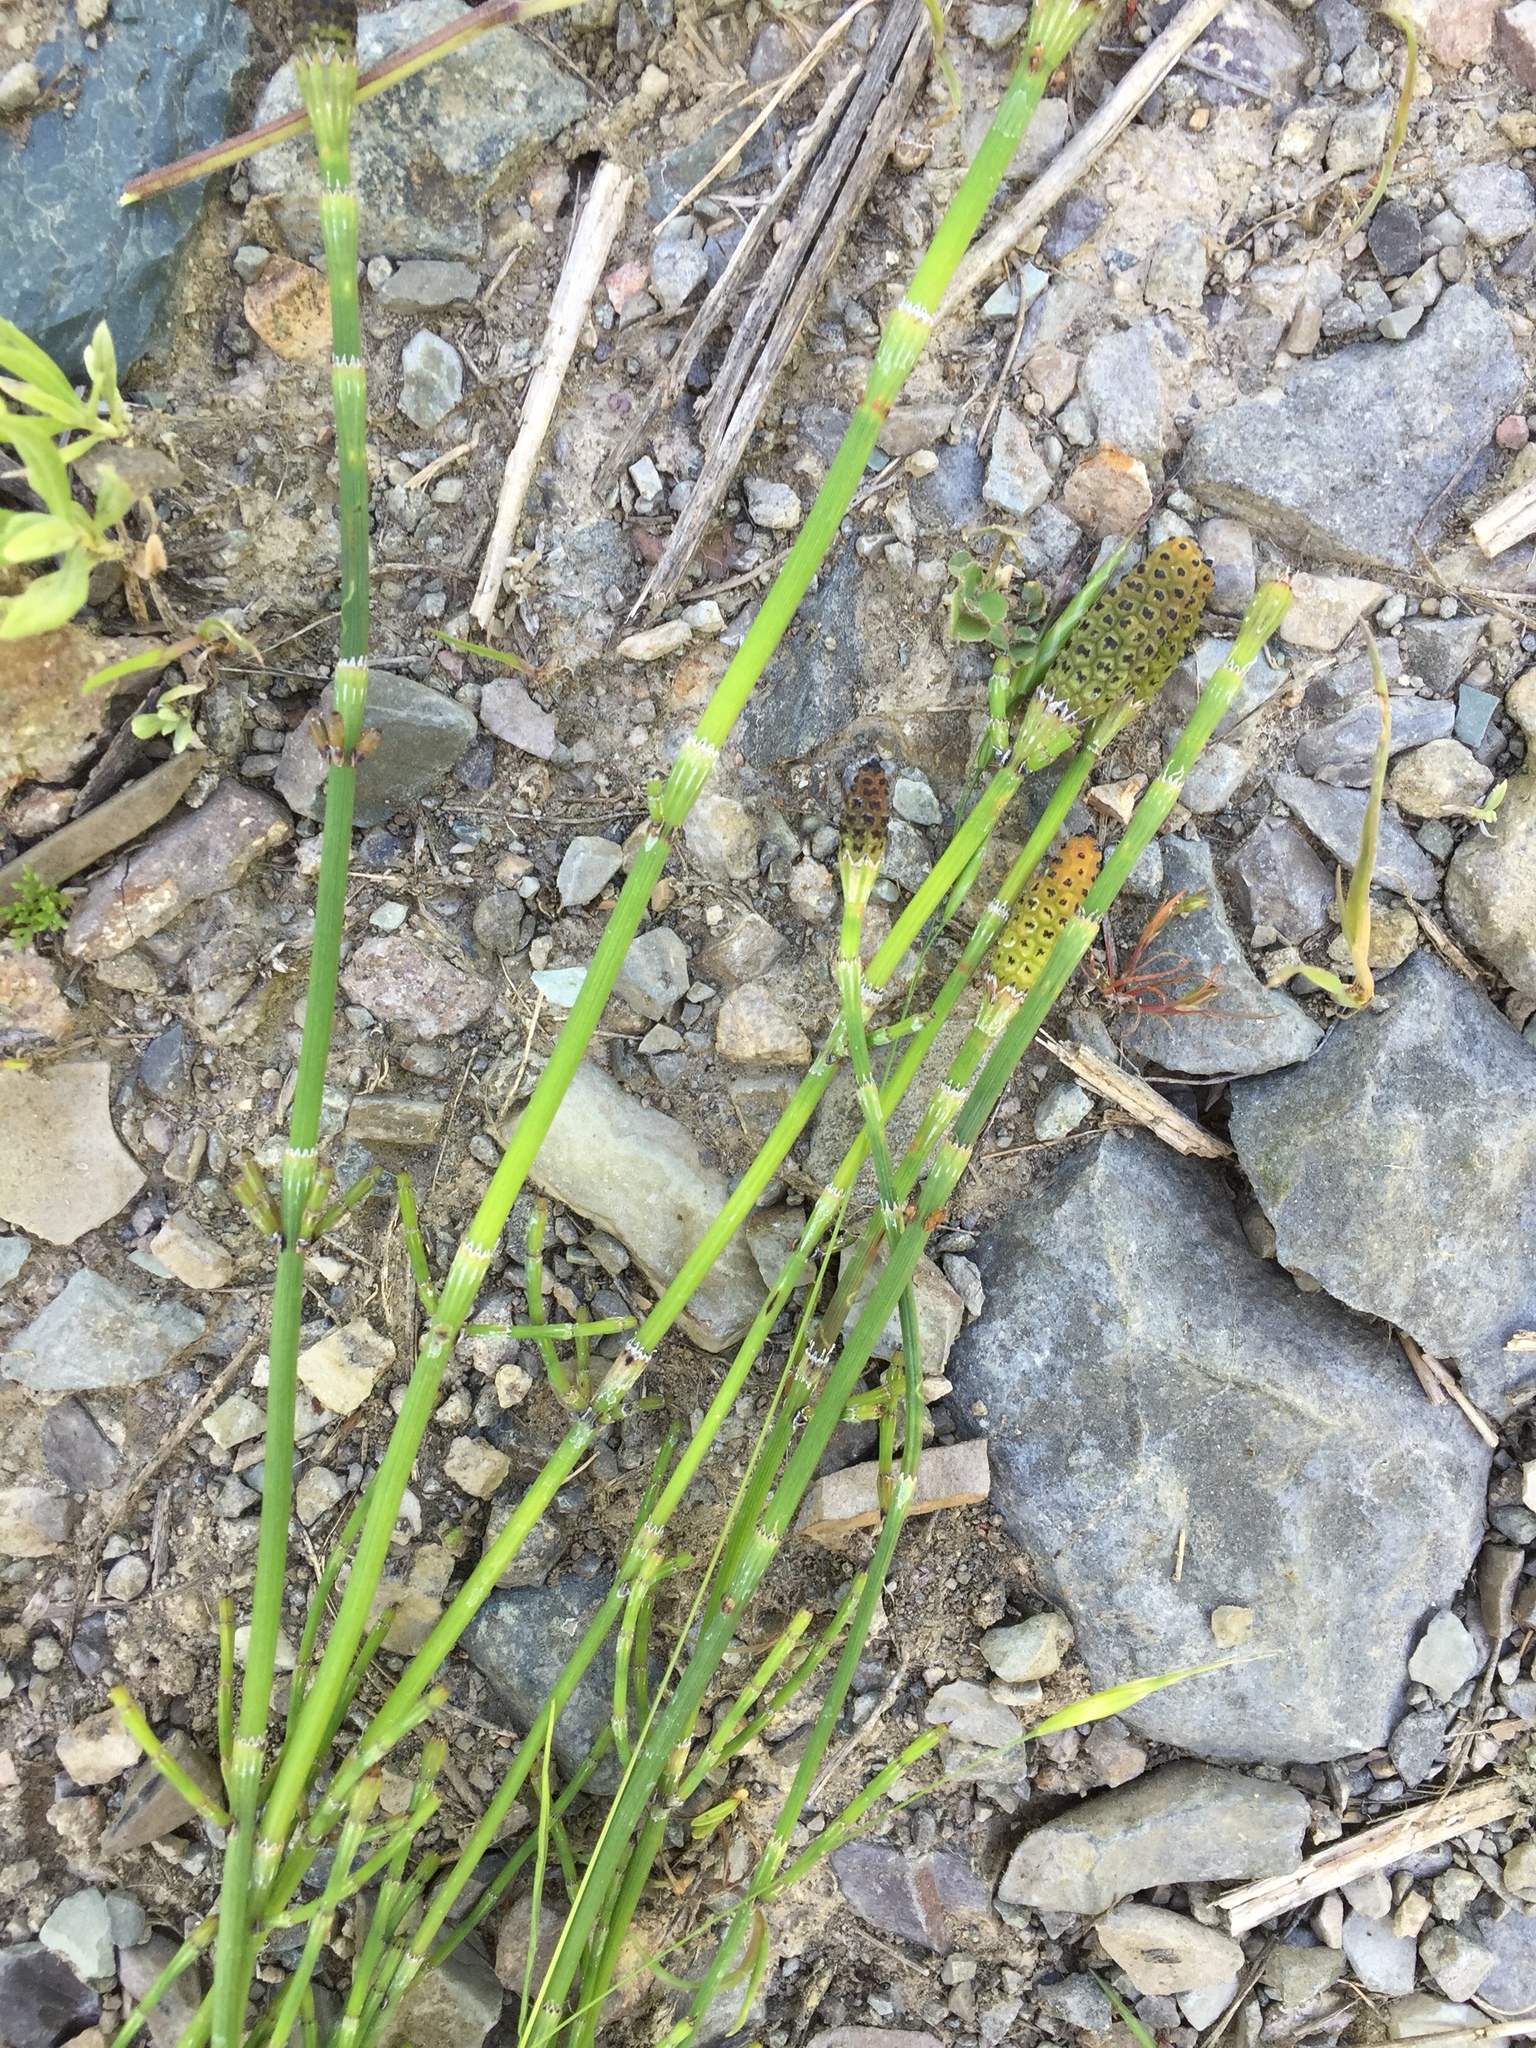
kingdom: Plantae
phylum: Tracheophyta
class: Polypodiopsida
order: Equisetales
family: Equisetaceae
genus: Equisetum
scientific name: Equisetum ramosissimum
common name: Branched horsetail
